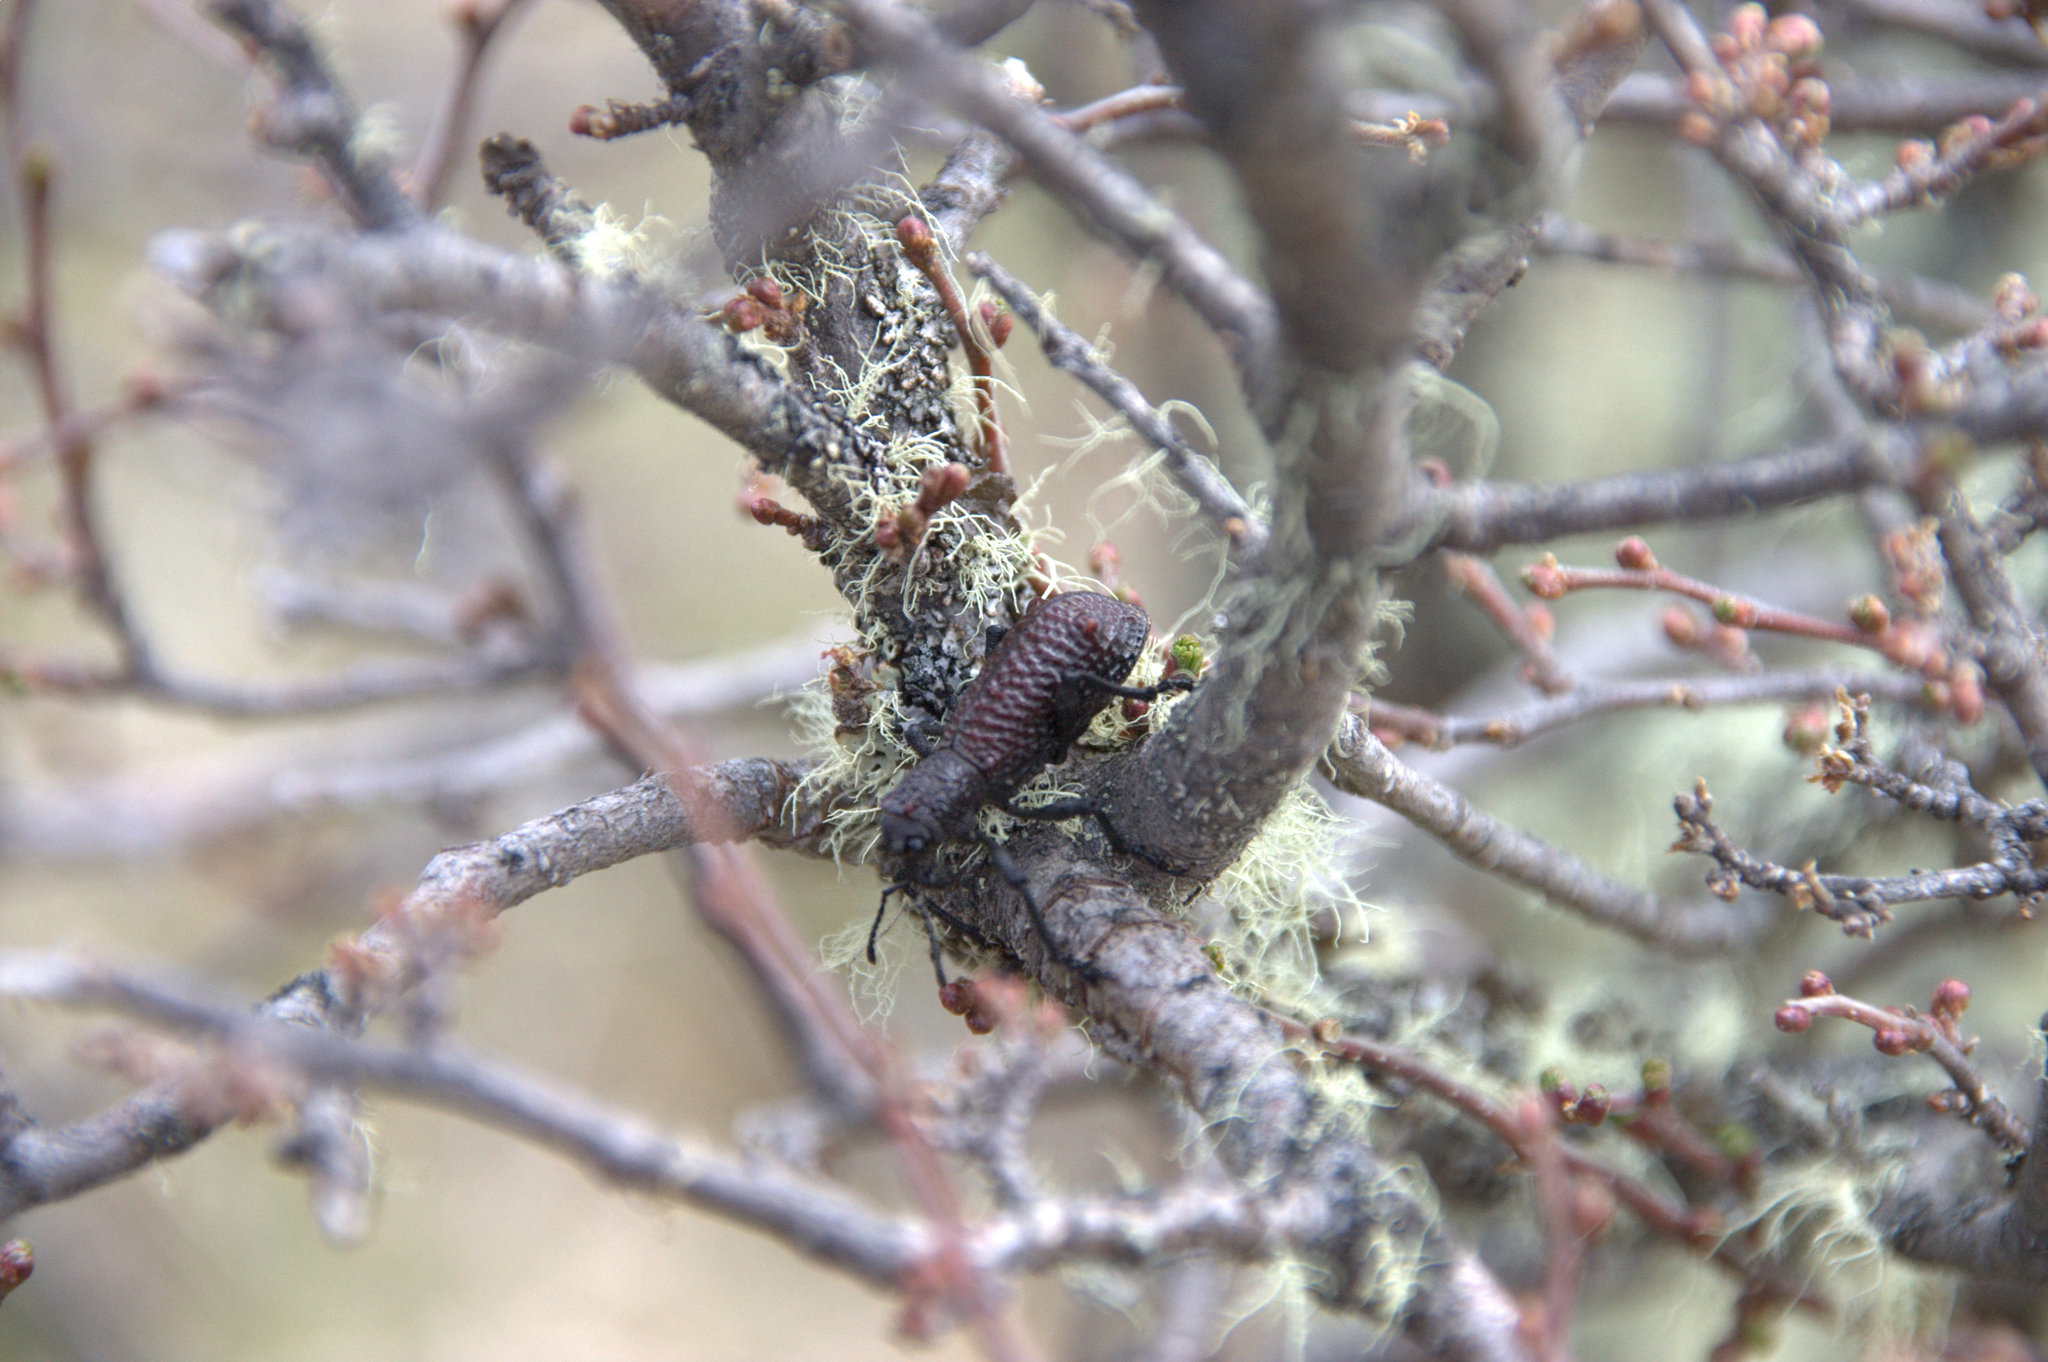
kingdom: Animalia
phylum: Arthropoda
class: Insecta
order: Coleoptera
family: Curculionidae
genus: Aegorhinus
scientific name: Aegorhinus vitulus
